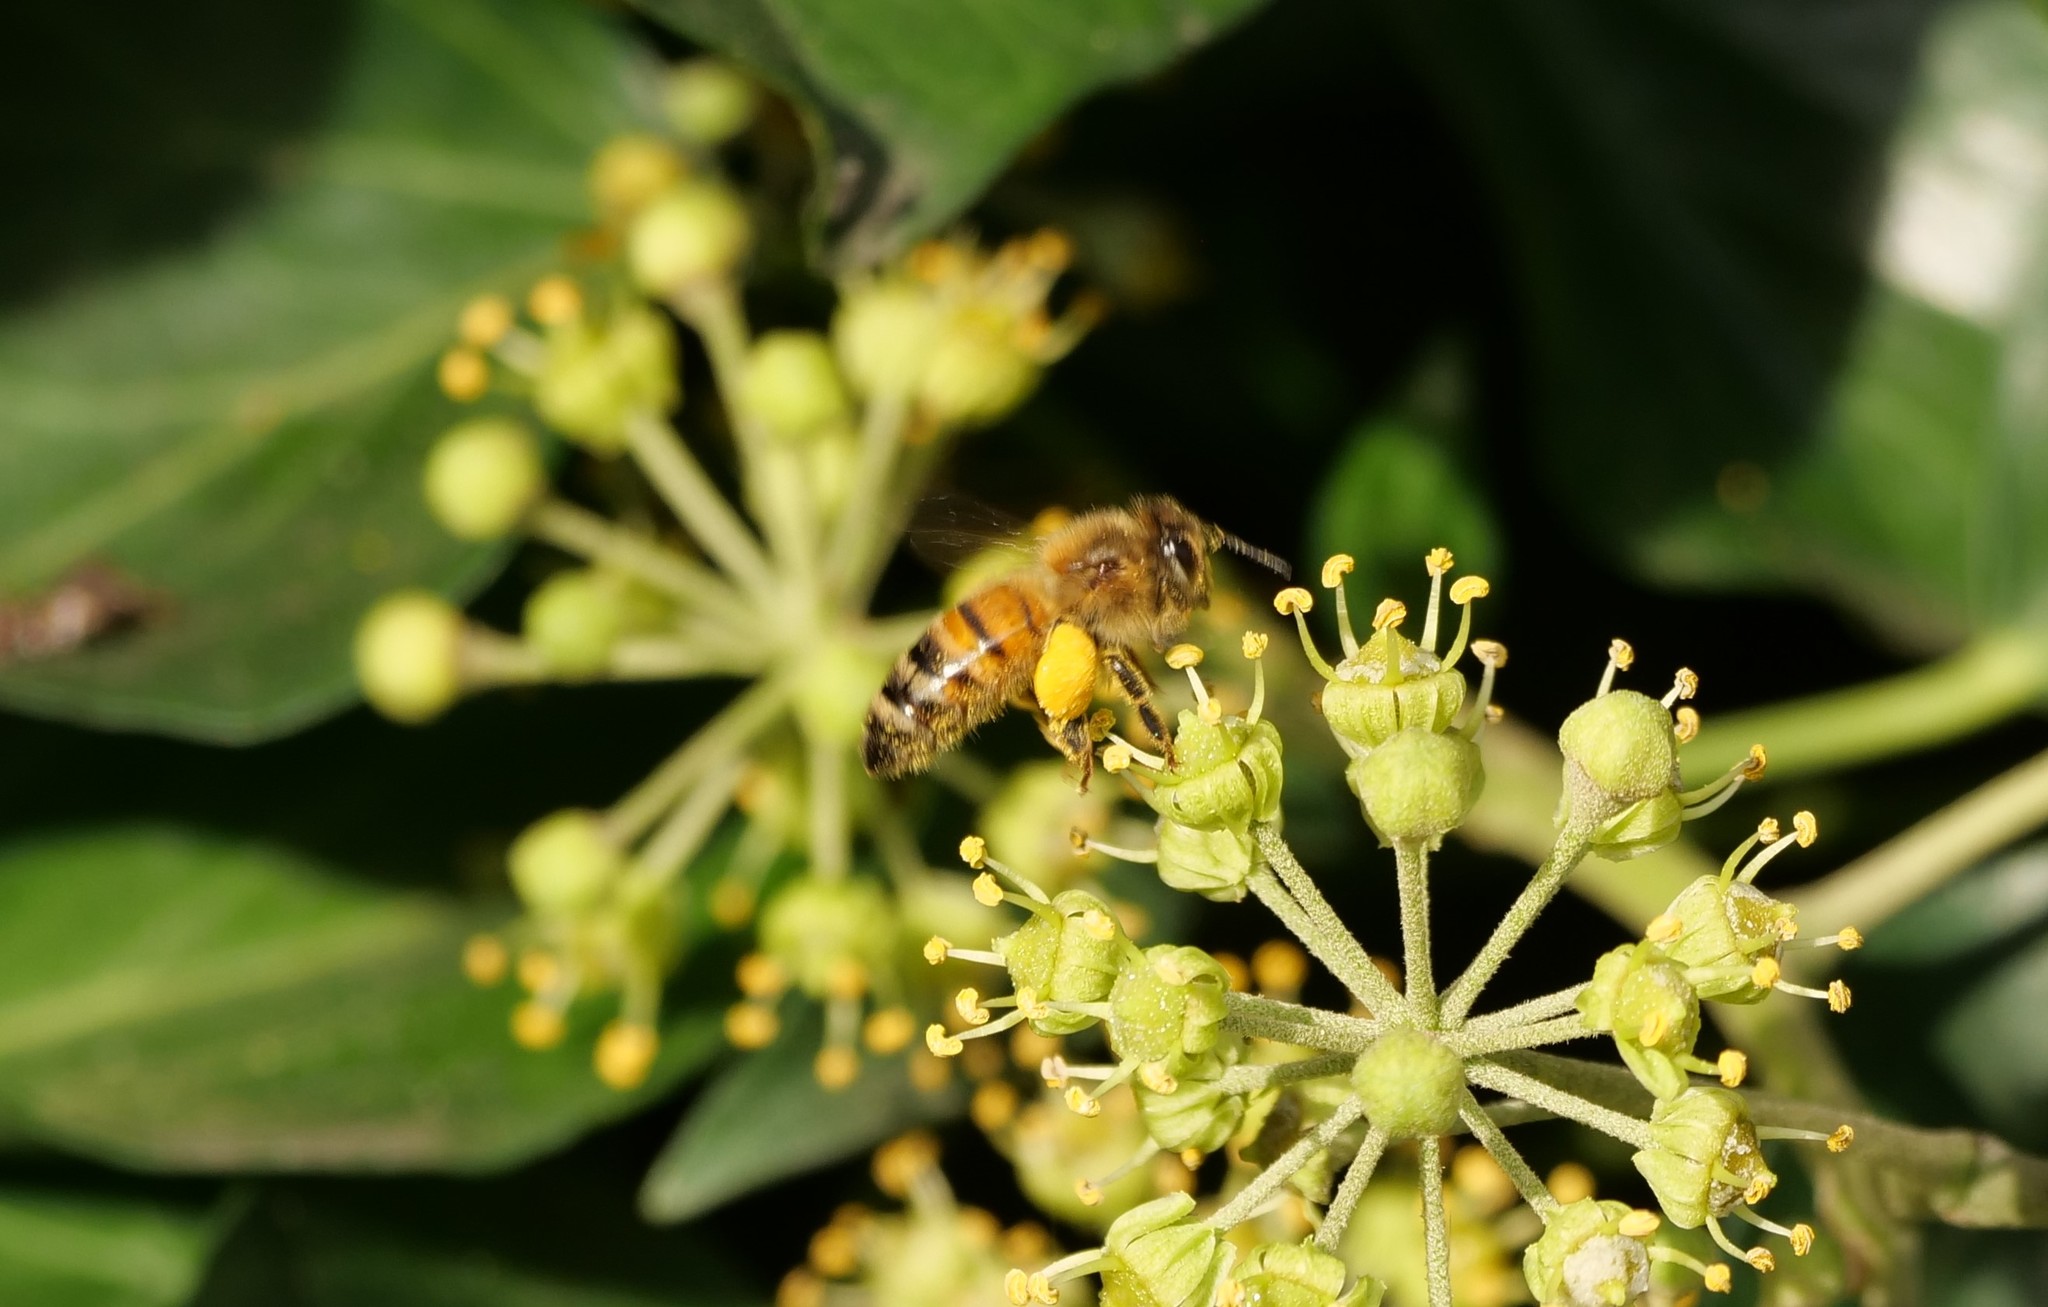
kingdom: Animalia
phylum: Arthropoda
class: Insecta
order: Hymenoptera
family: Apidae
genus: Apis
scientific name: Apis mellifera
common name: Honey bee
